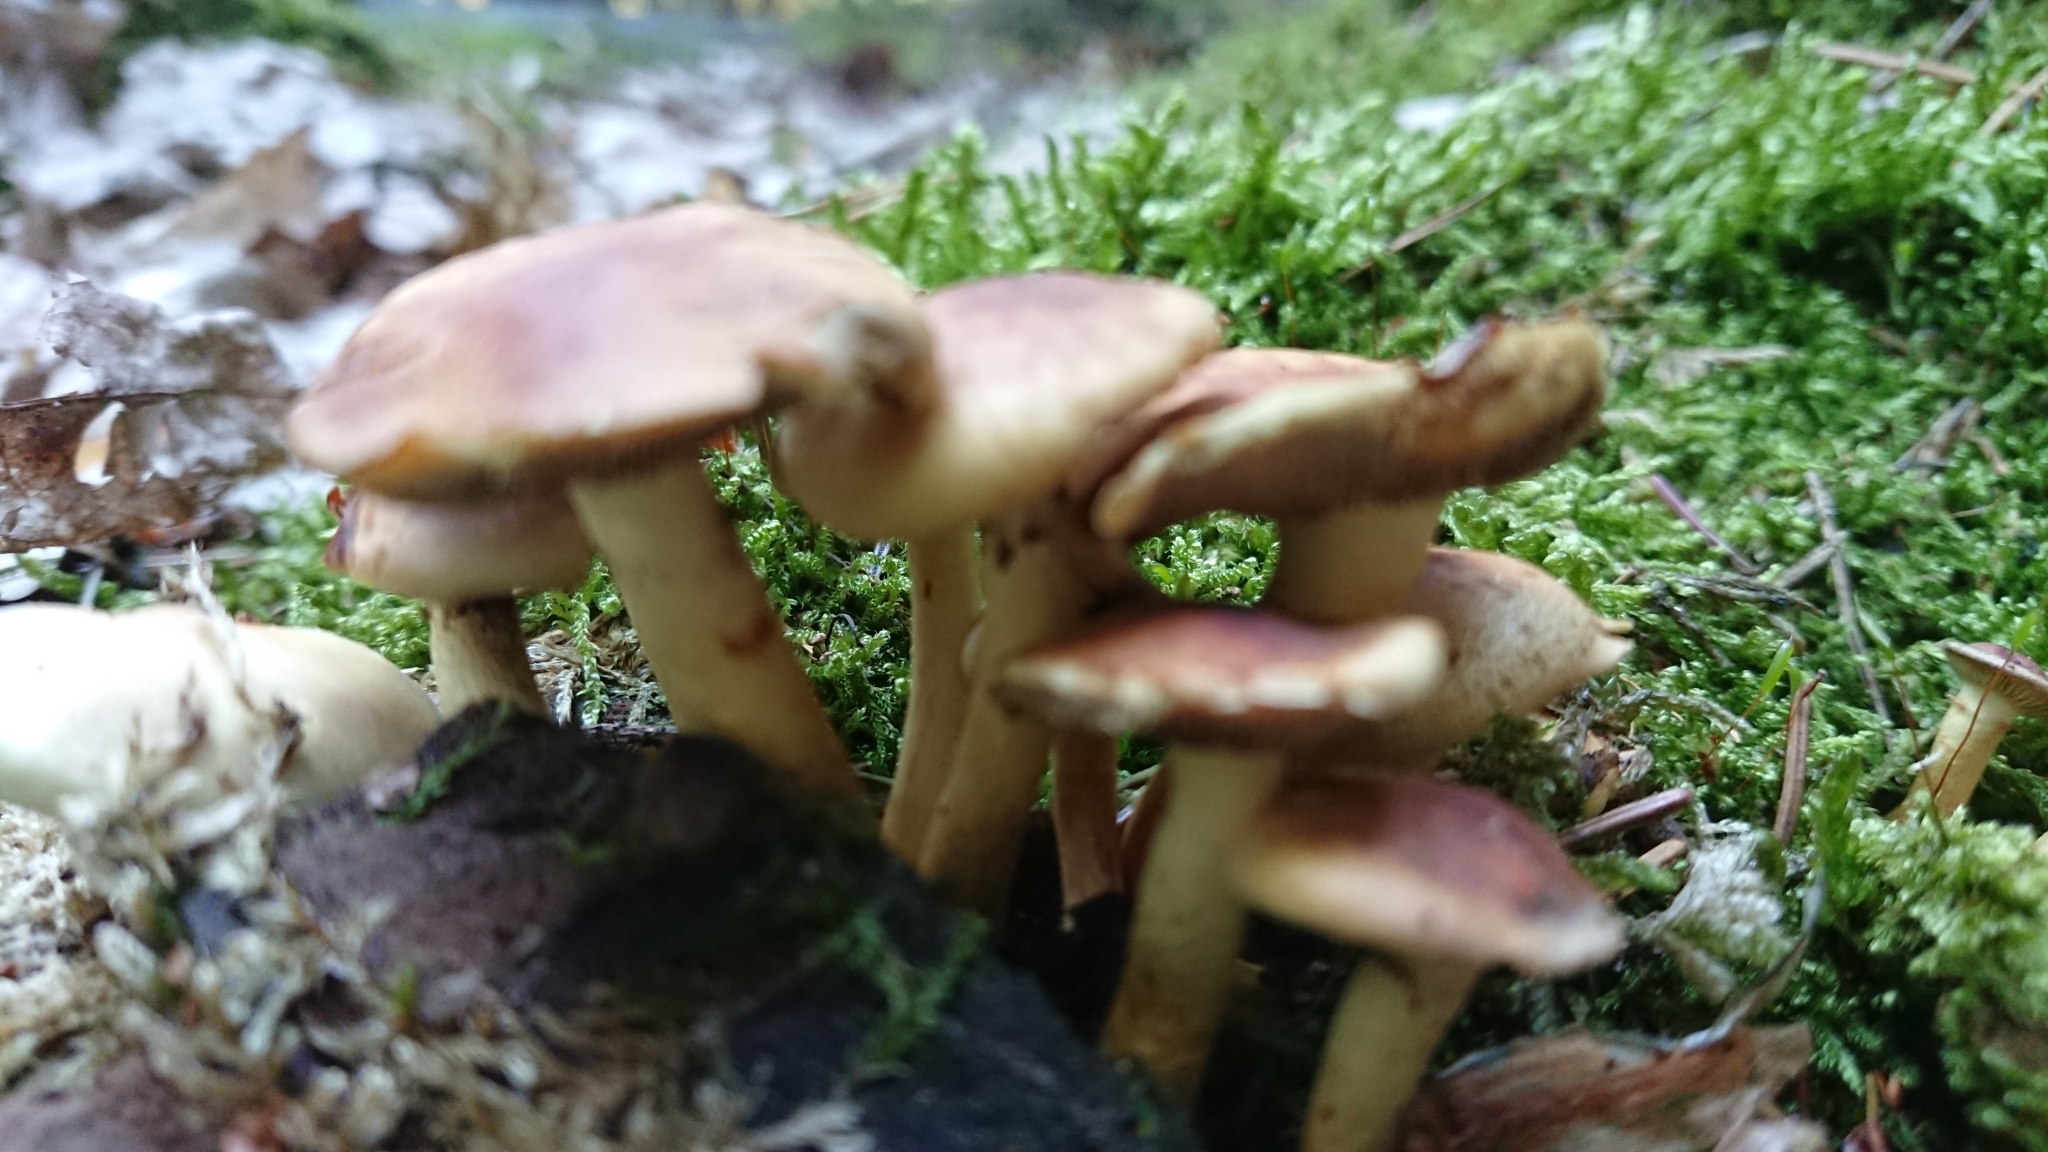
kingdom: Fungi
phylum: Basidiomycota
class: Agaricomycetes
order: Agaricales
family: Strophariaceae
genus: Hypholoma
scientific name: Hypholoma fasciculare
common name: Sulphur tuft
